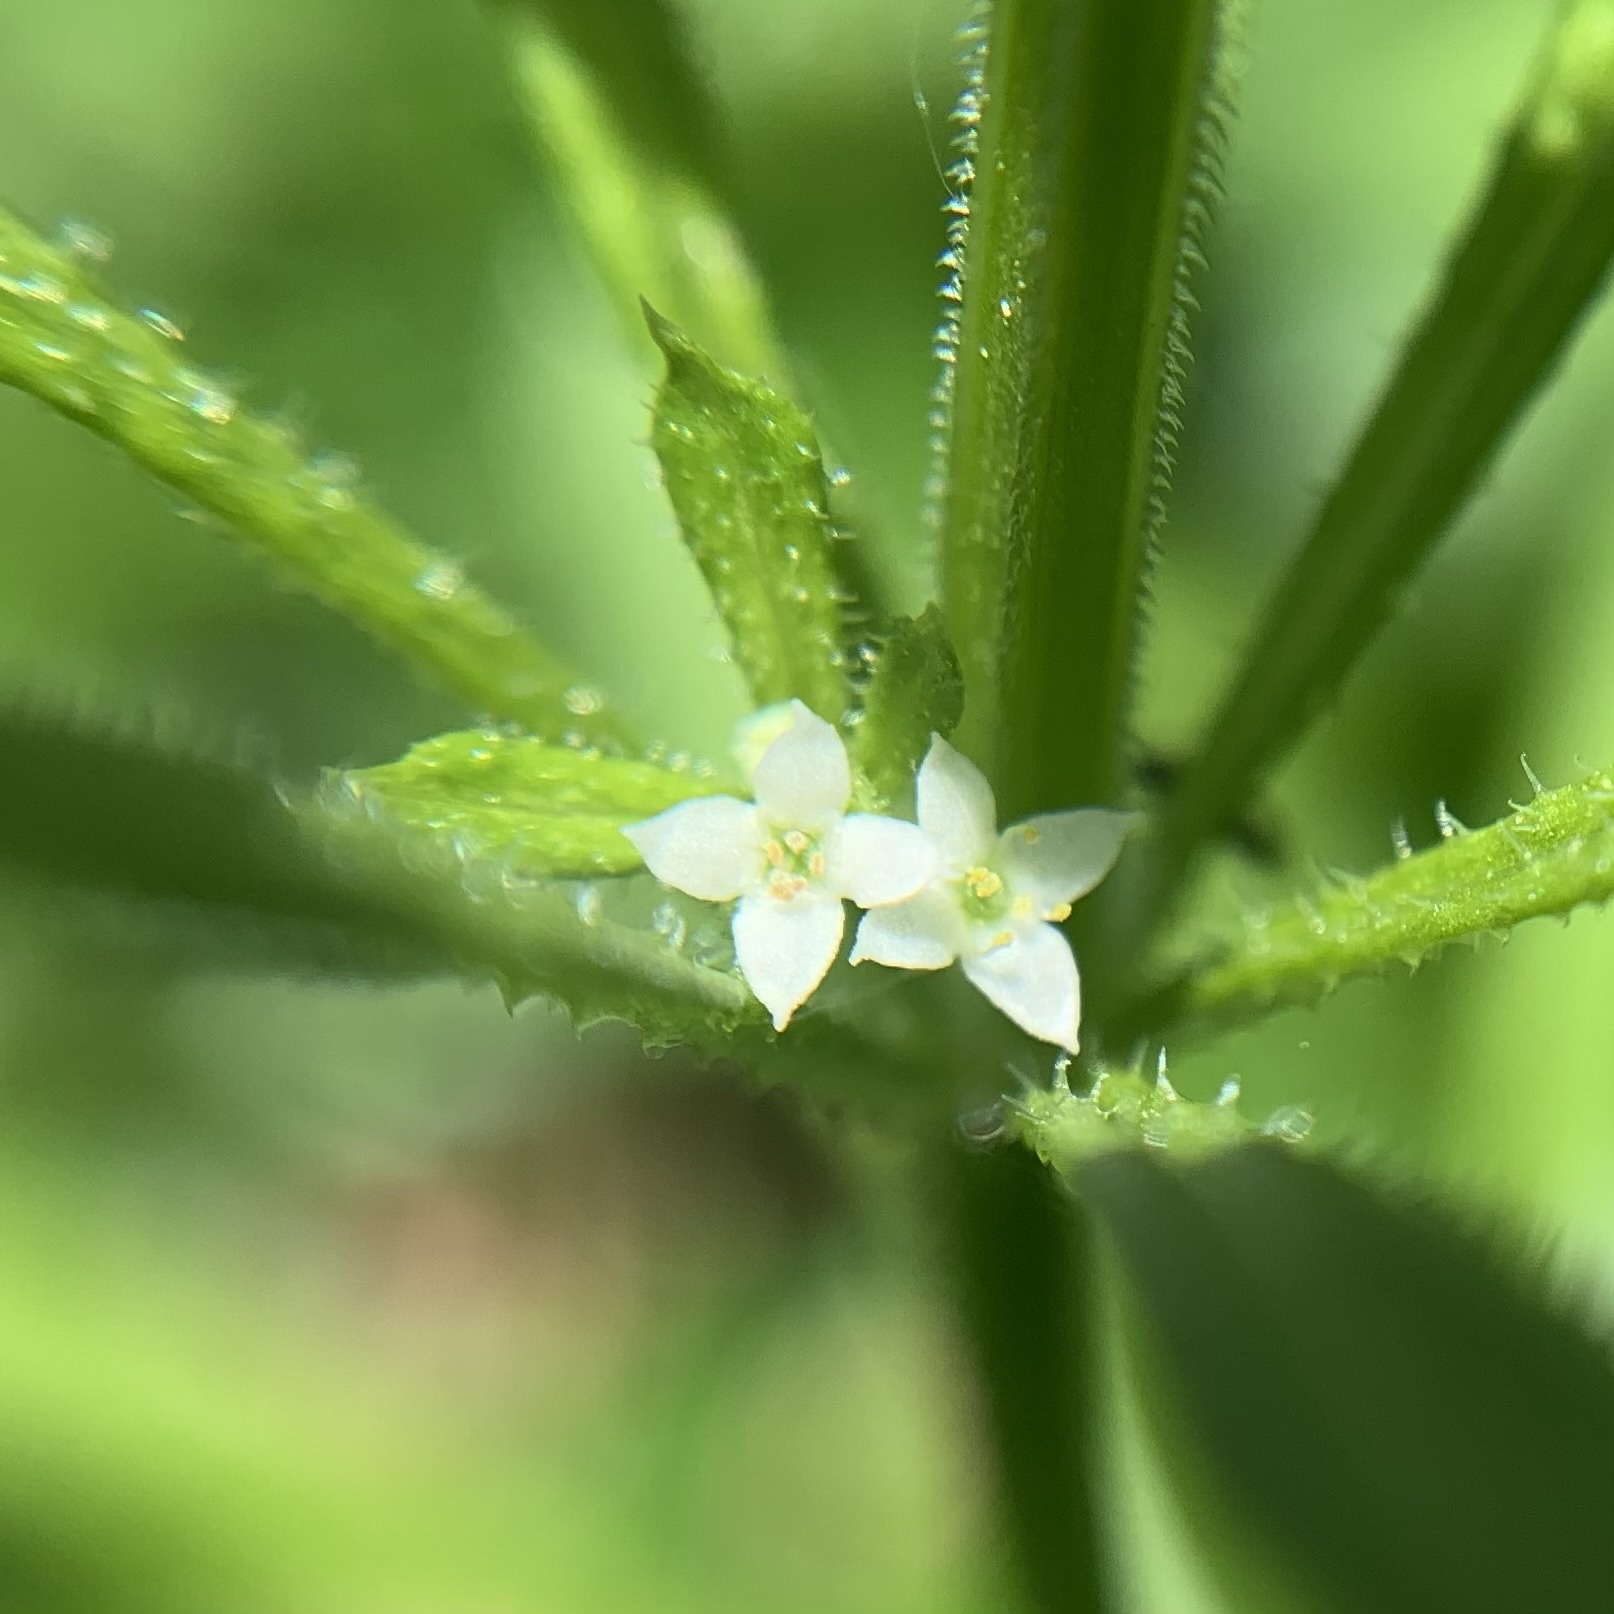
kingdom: Plantae
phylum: Tracheophyta
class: Magnoliopsida
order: Gentianales
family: Rubiaceae
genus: Galium
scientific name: Galium aparine
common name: Cleavers
